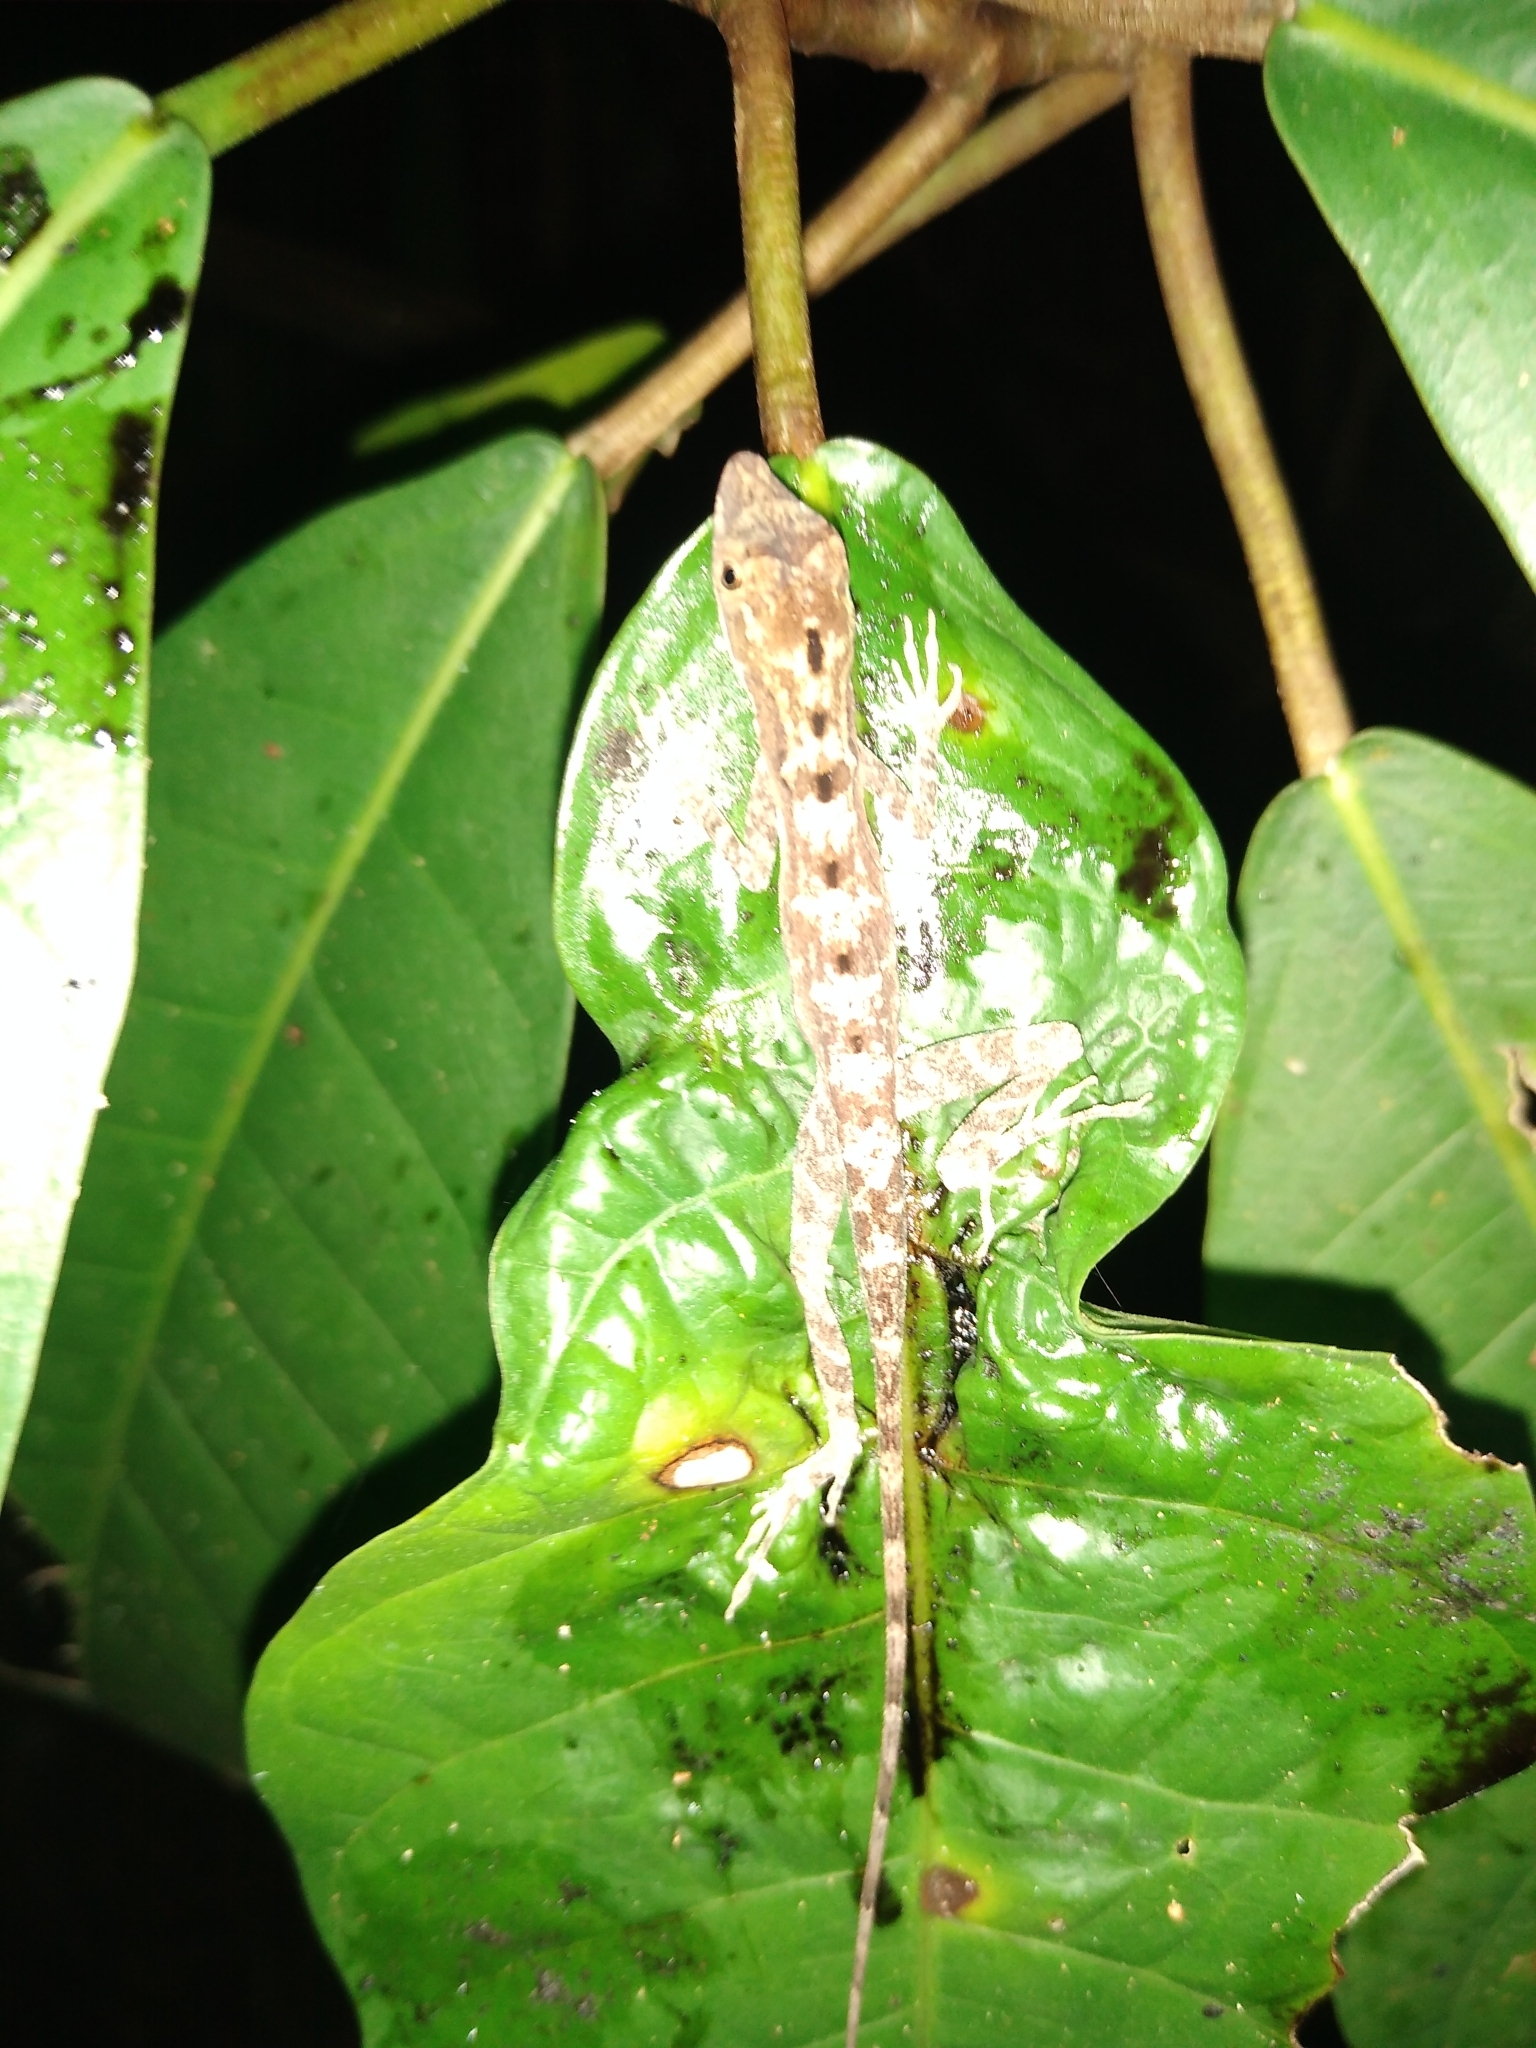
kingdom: Animalia
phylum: Chordata
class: Squamata
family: Dactyloidae
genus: Anolis
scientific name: Anolis rodriguezii
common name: Middle american smooth anole
